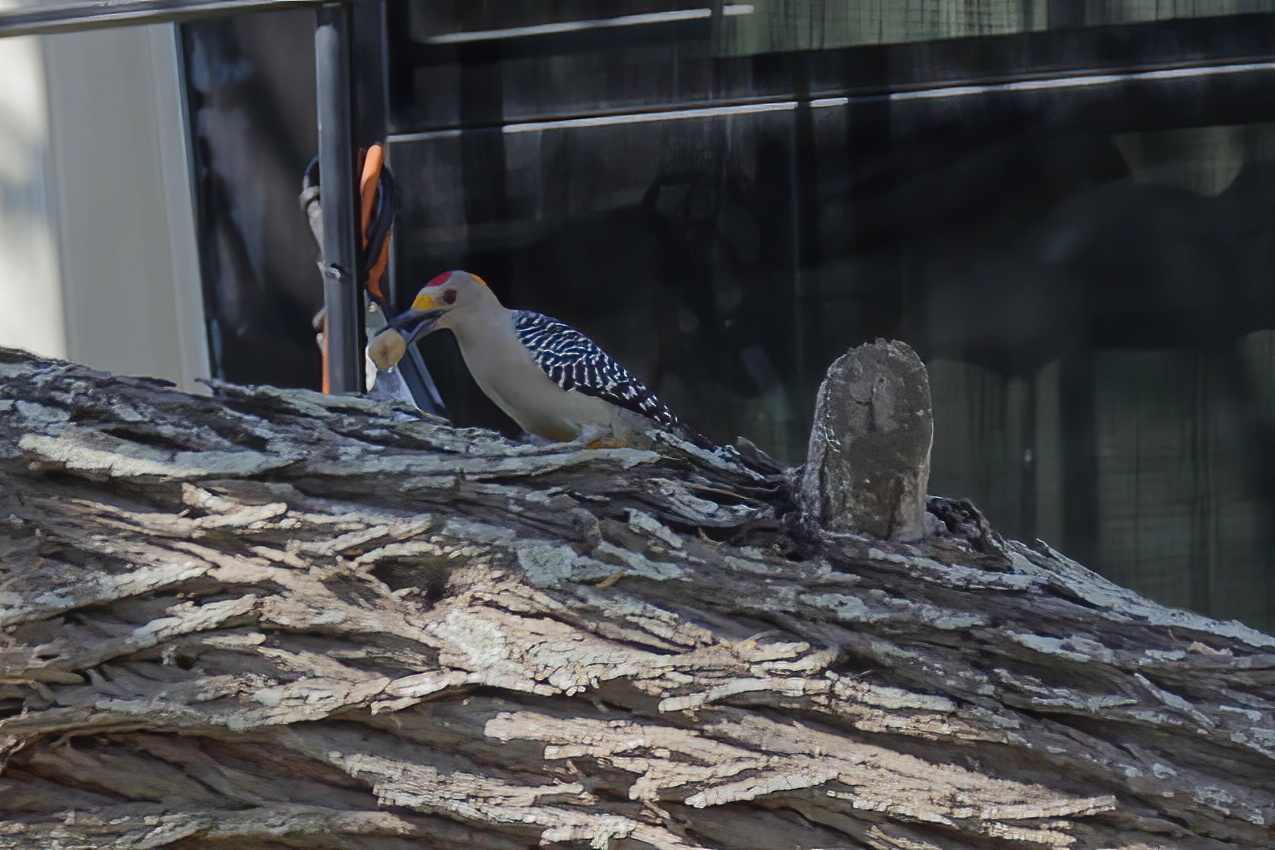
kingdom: Animalia
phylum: Chordata
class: Aves
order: Piciformes
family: Picidae
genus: Melanerpes
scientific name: Melanerpes aurifrons
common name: Golden-fronted woodpecker
